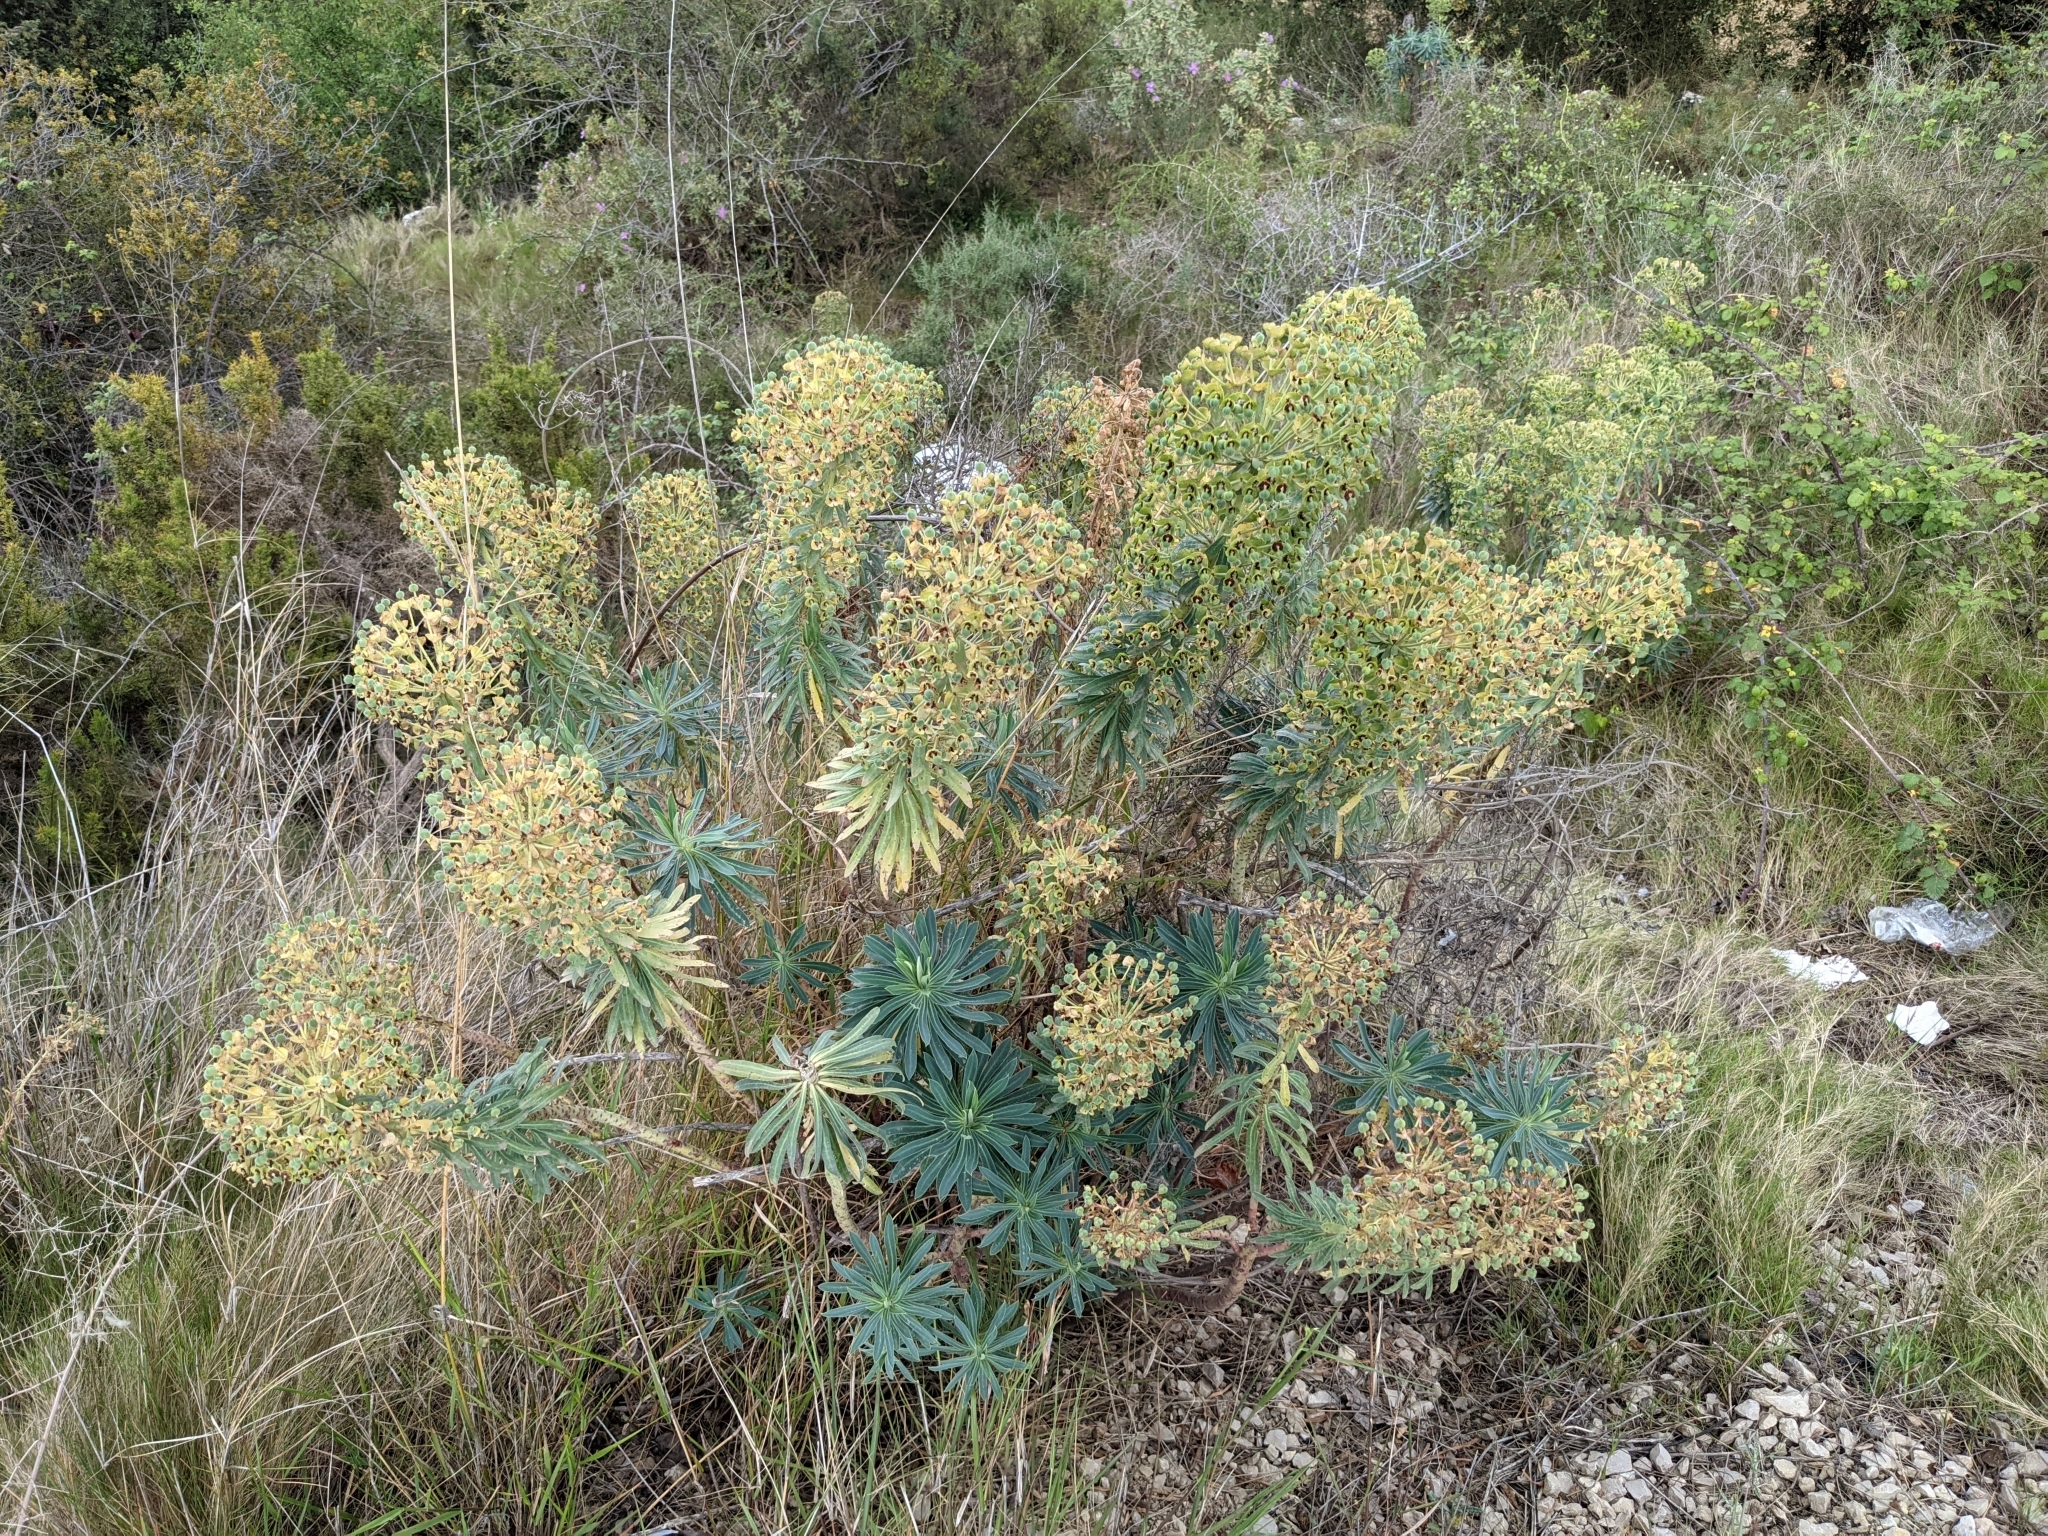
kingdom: Plantae
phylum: Tracheophyta
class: Magnoliopsida
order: Malpighiales
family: Euphorbiaceae
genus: Euphorbia
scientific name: Euphorbia characias
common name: Mediterranean spurge
